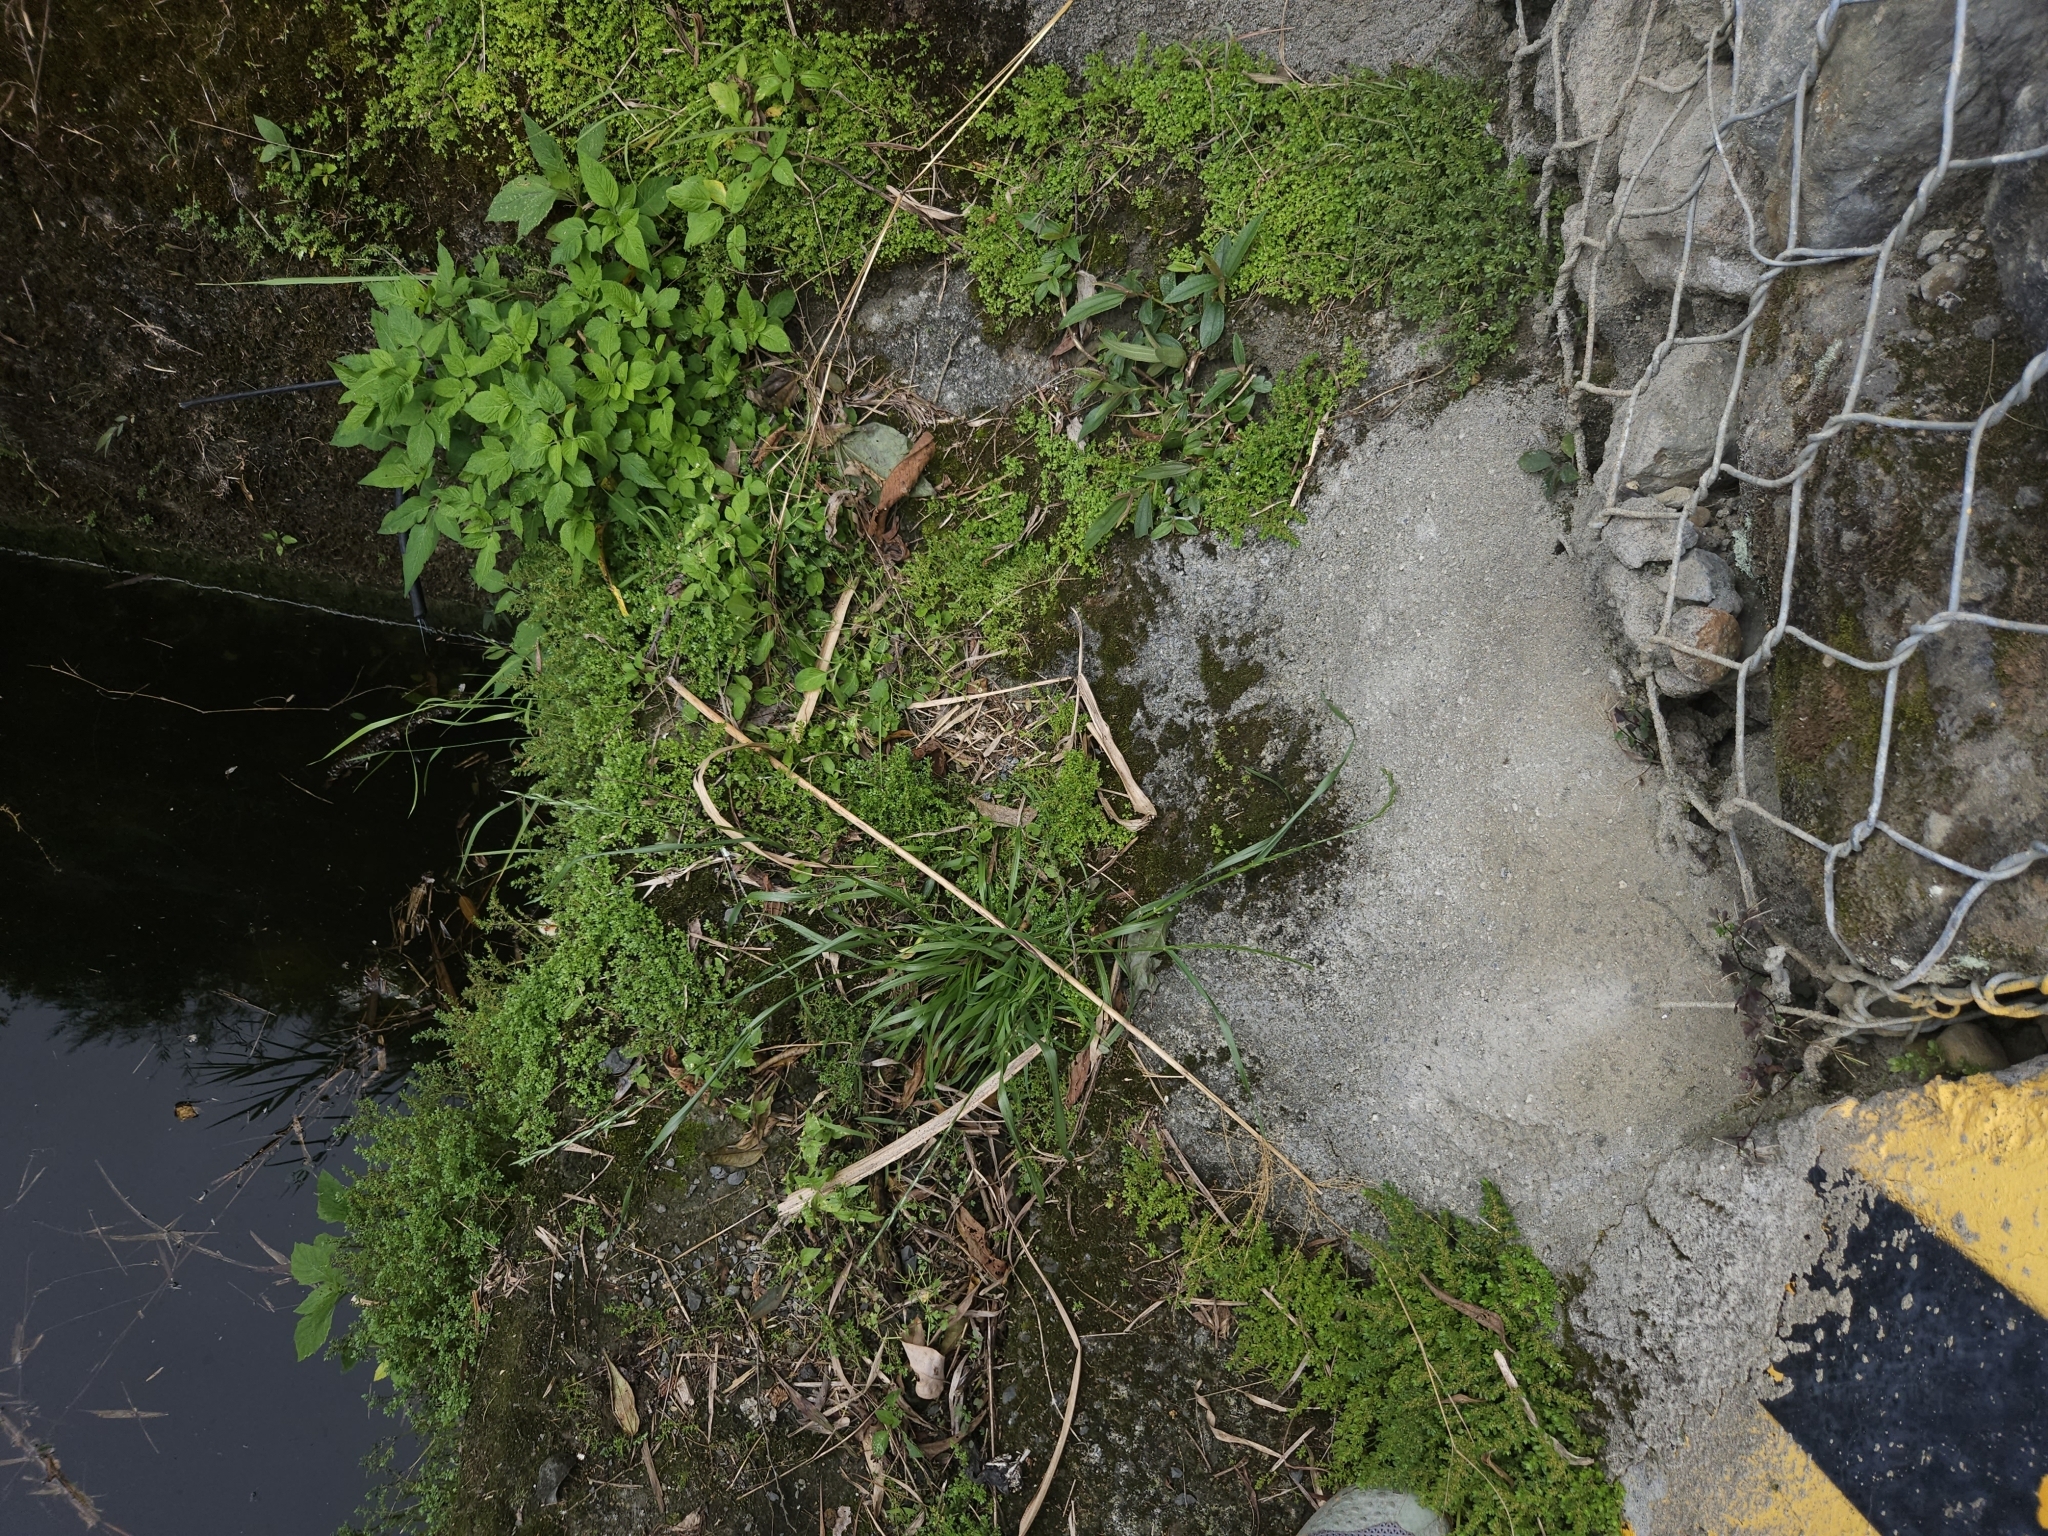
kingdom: Plantae
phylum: Tracheophyta
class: Liliopsida
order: Poales
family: Poaceae
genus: Lolium
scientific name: Lolium multiflorum
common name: Annual ryegrass
